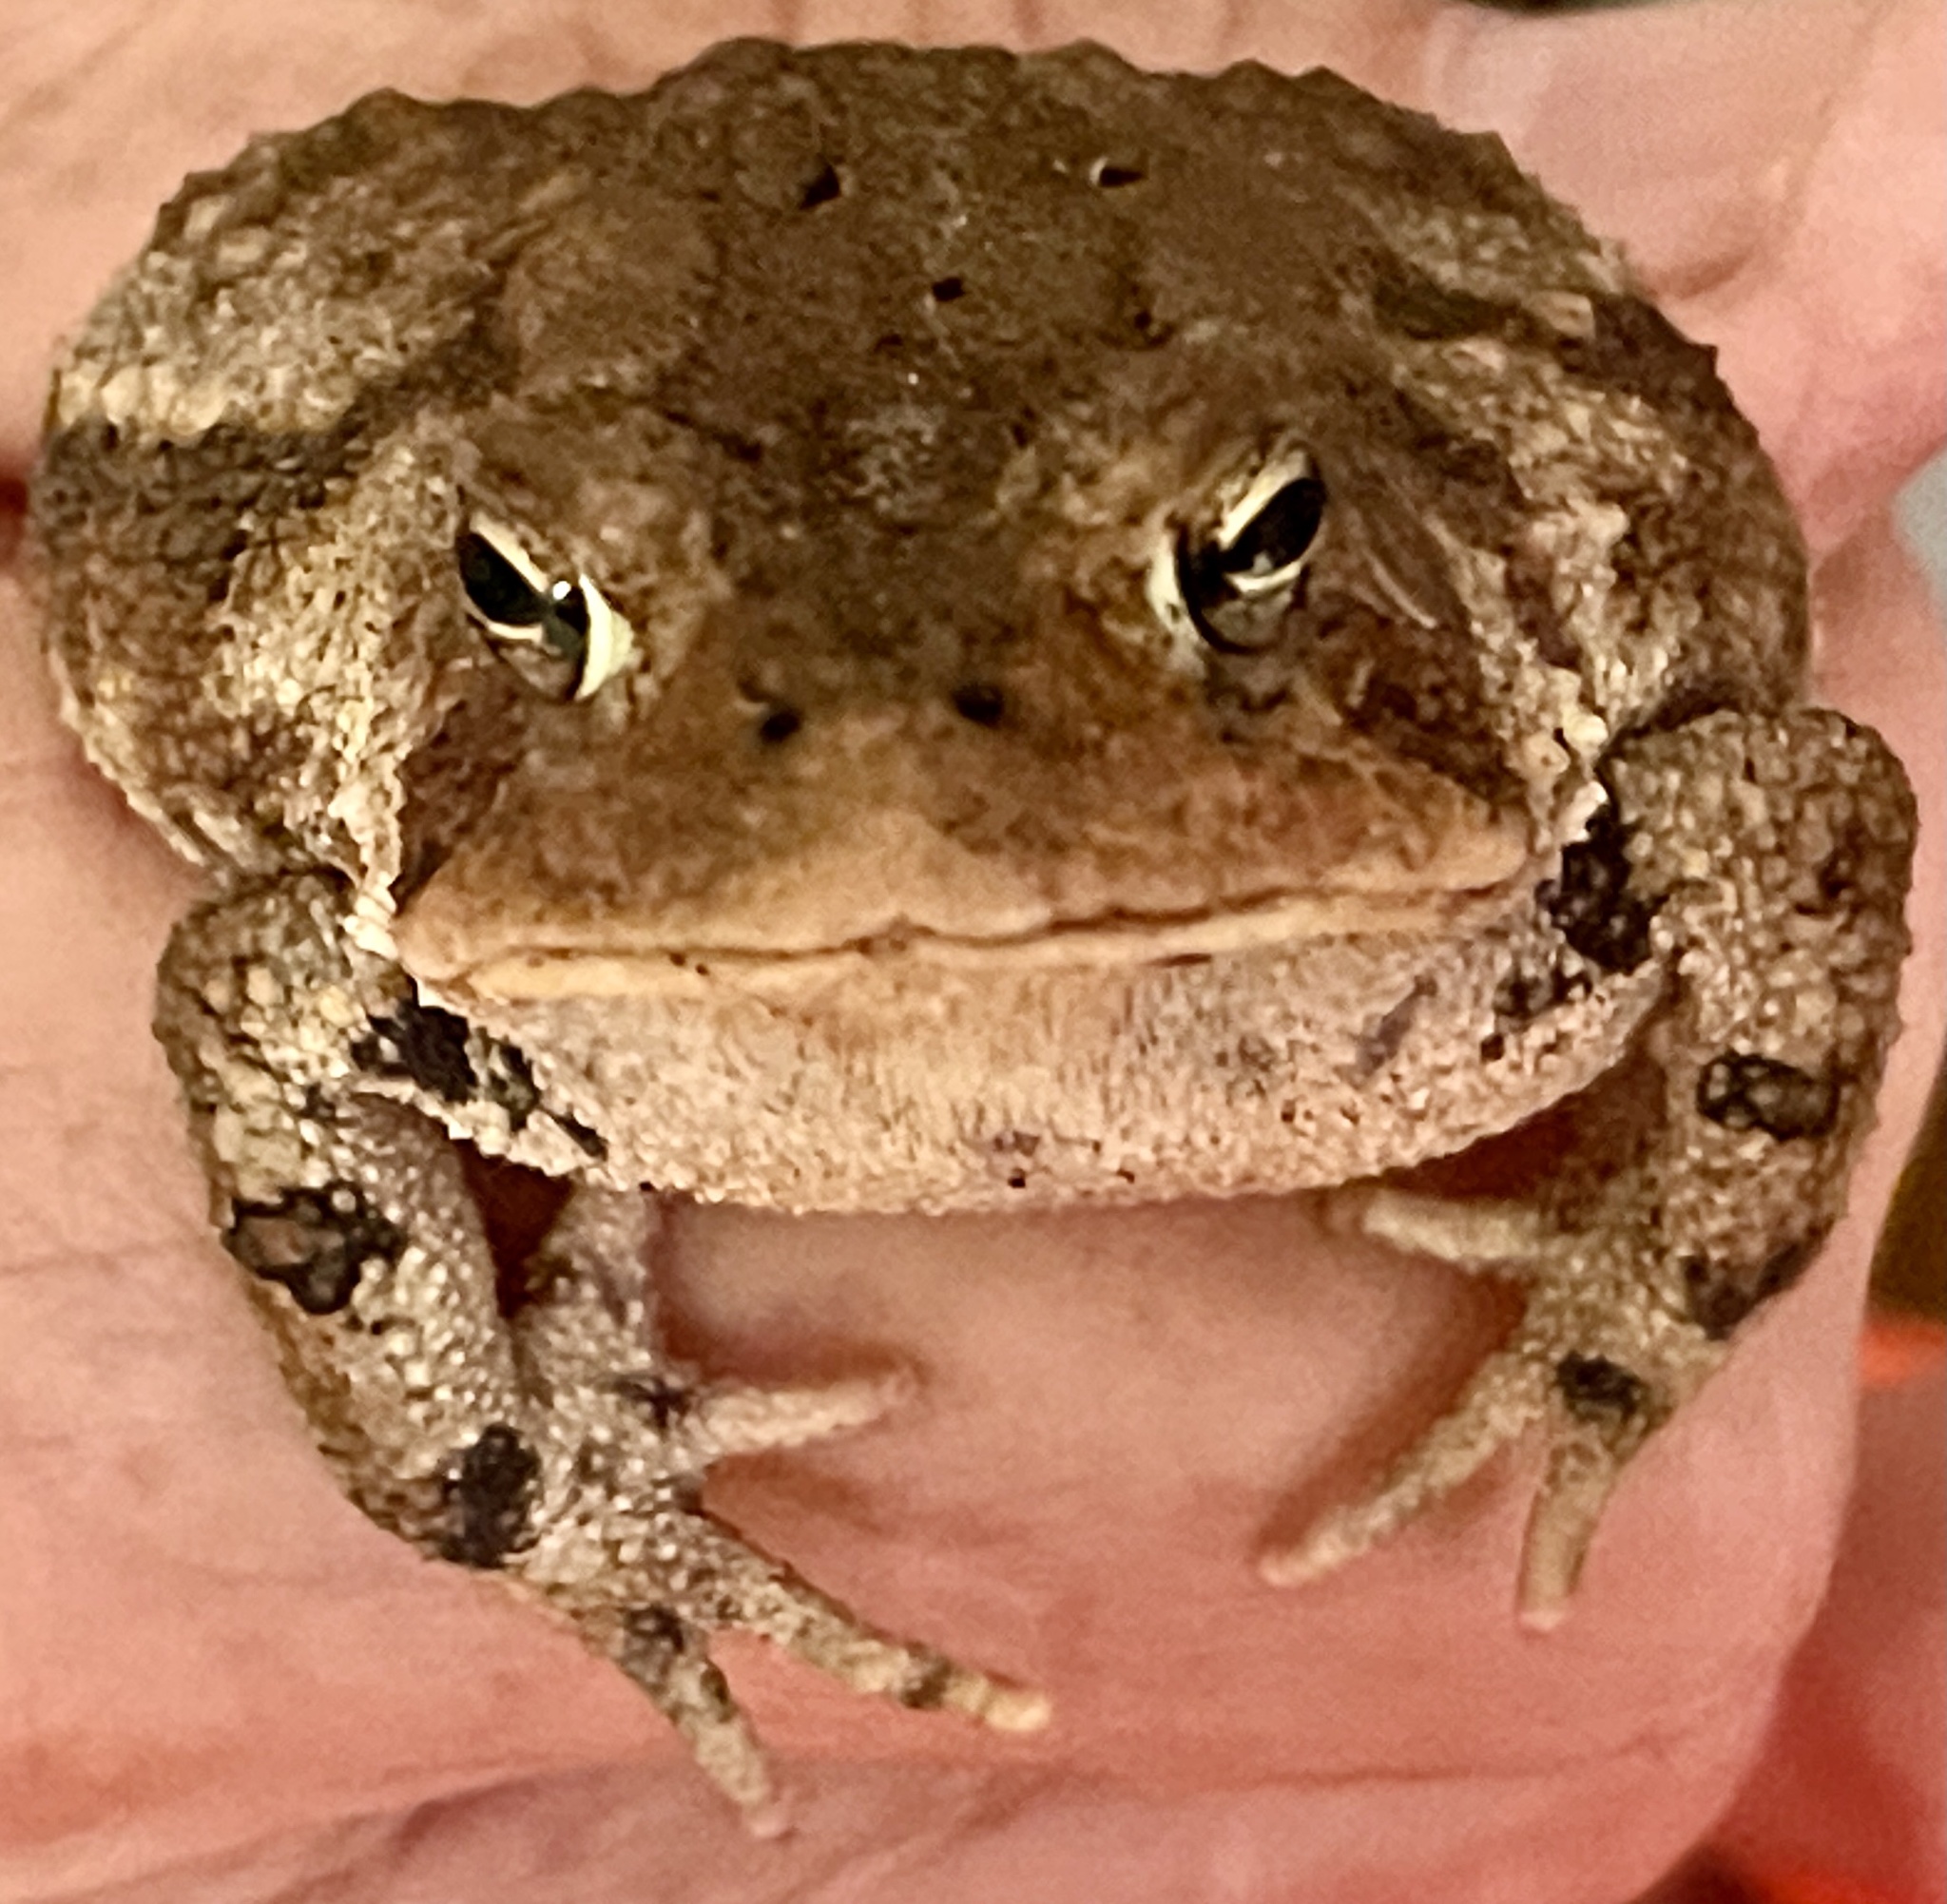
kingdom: Animalia
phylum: Chordata
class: Amphibia
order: Anura
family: Bufonidae
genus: Anaxyrus
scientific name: Anaxyrus americanus
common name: American toad
